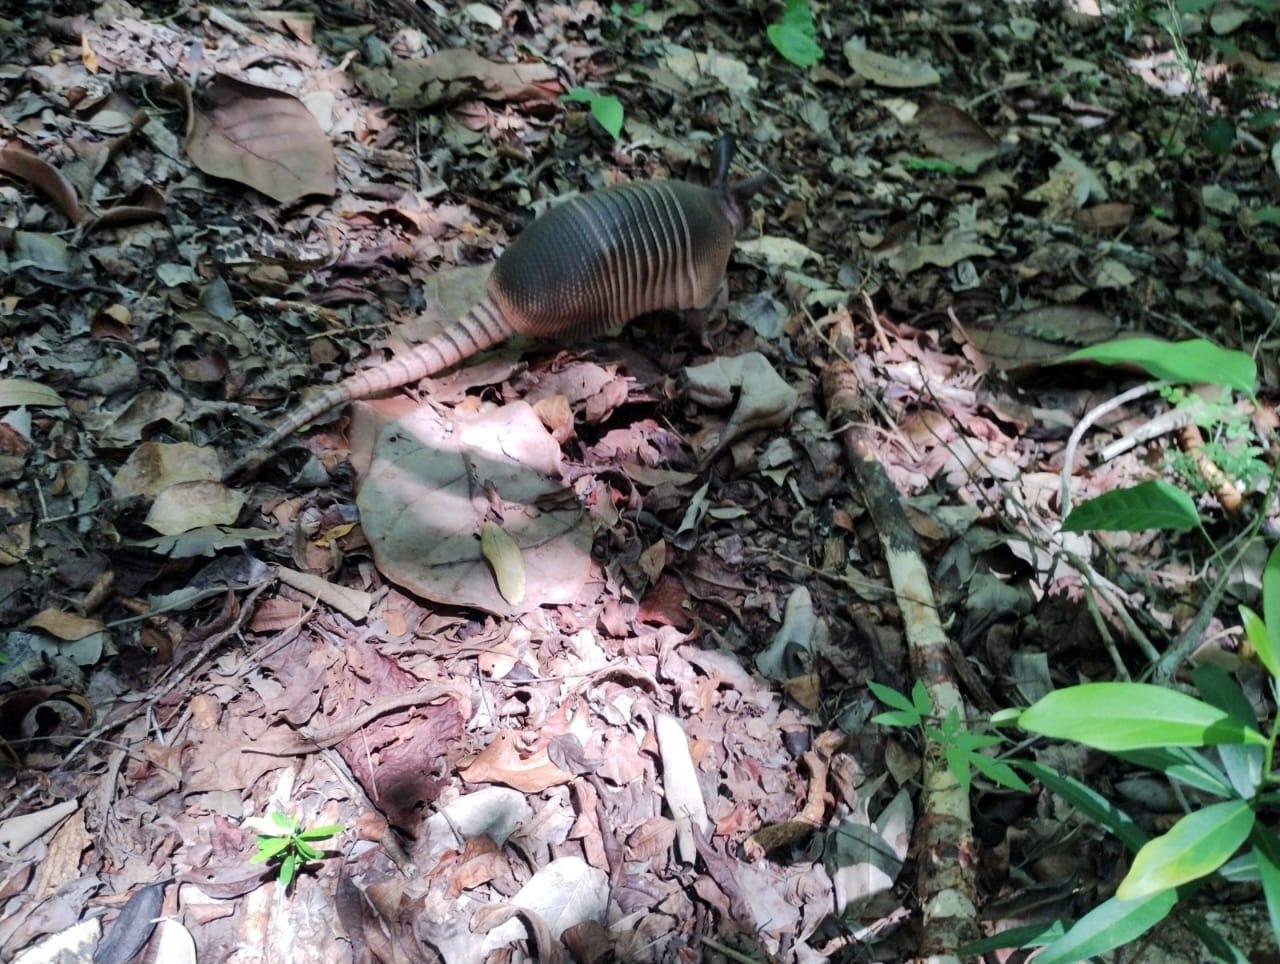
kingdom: Animalia
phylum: Chordata
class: Mammalia
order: Cingulata
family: Dasypodidae
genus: Dasypus
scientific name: Dasypus novemcinctus
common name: Nine-banded armadillo
